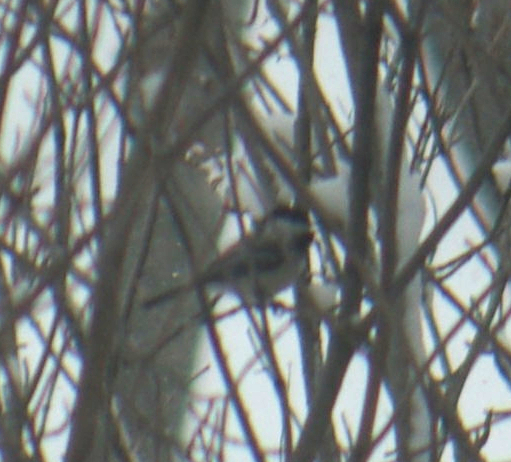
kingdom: Animalia
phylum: Chordata
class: Aves
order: Passeriformes
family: Paridae
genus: Poecile
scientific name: Poecile atricapillus
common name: Black-capped chickadee
